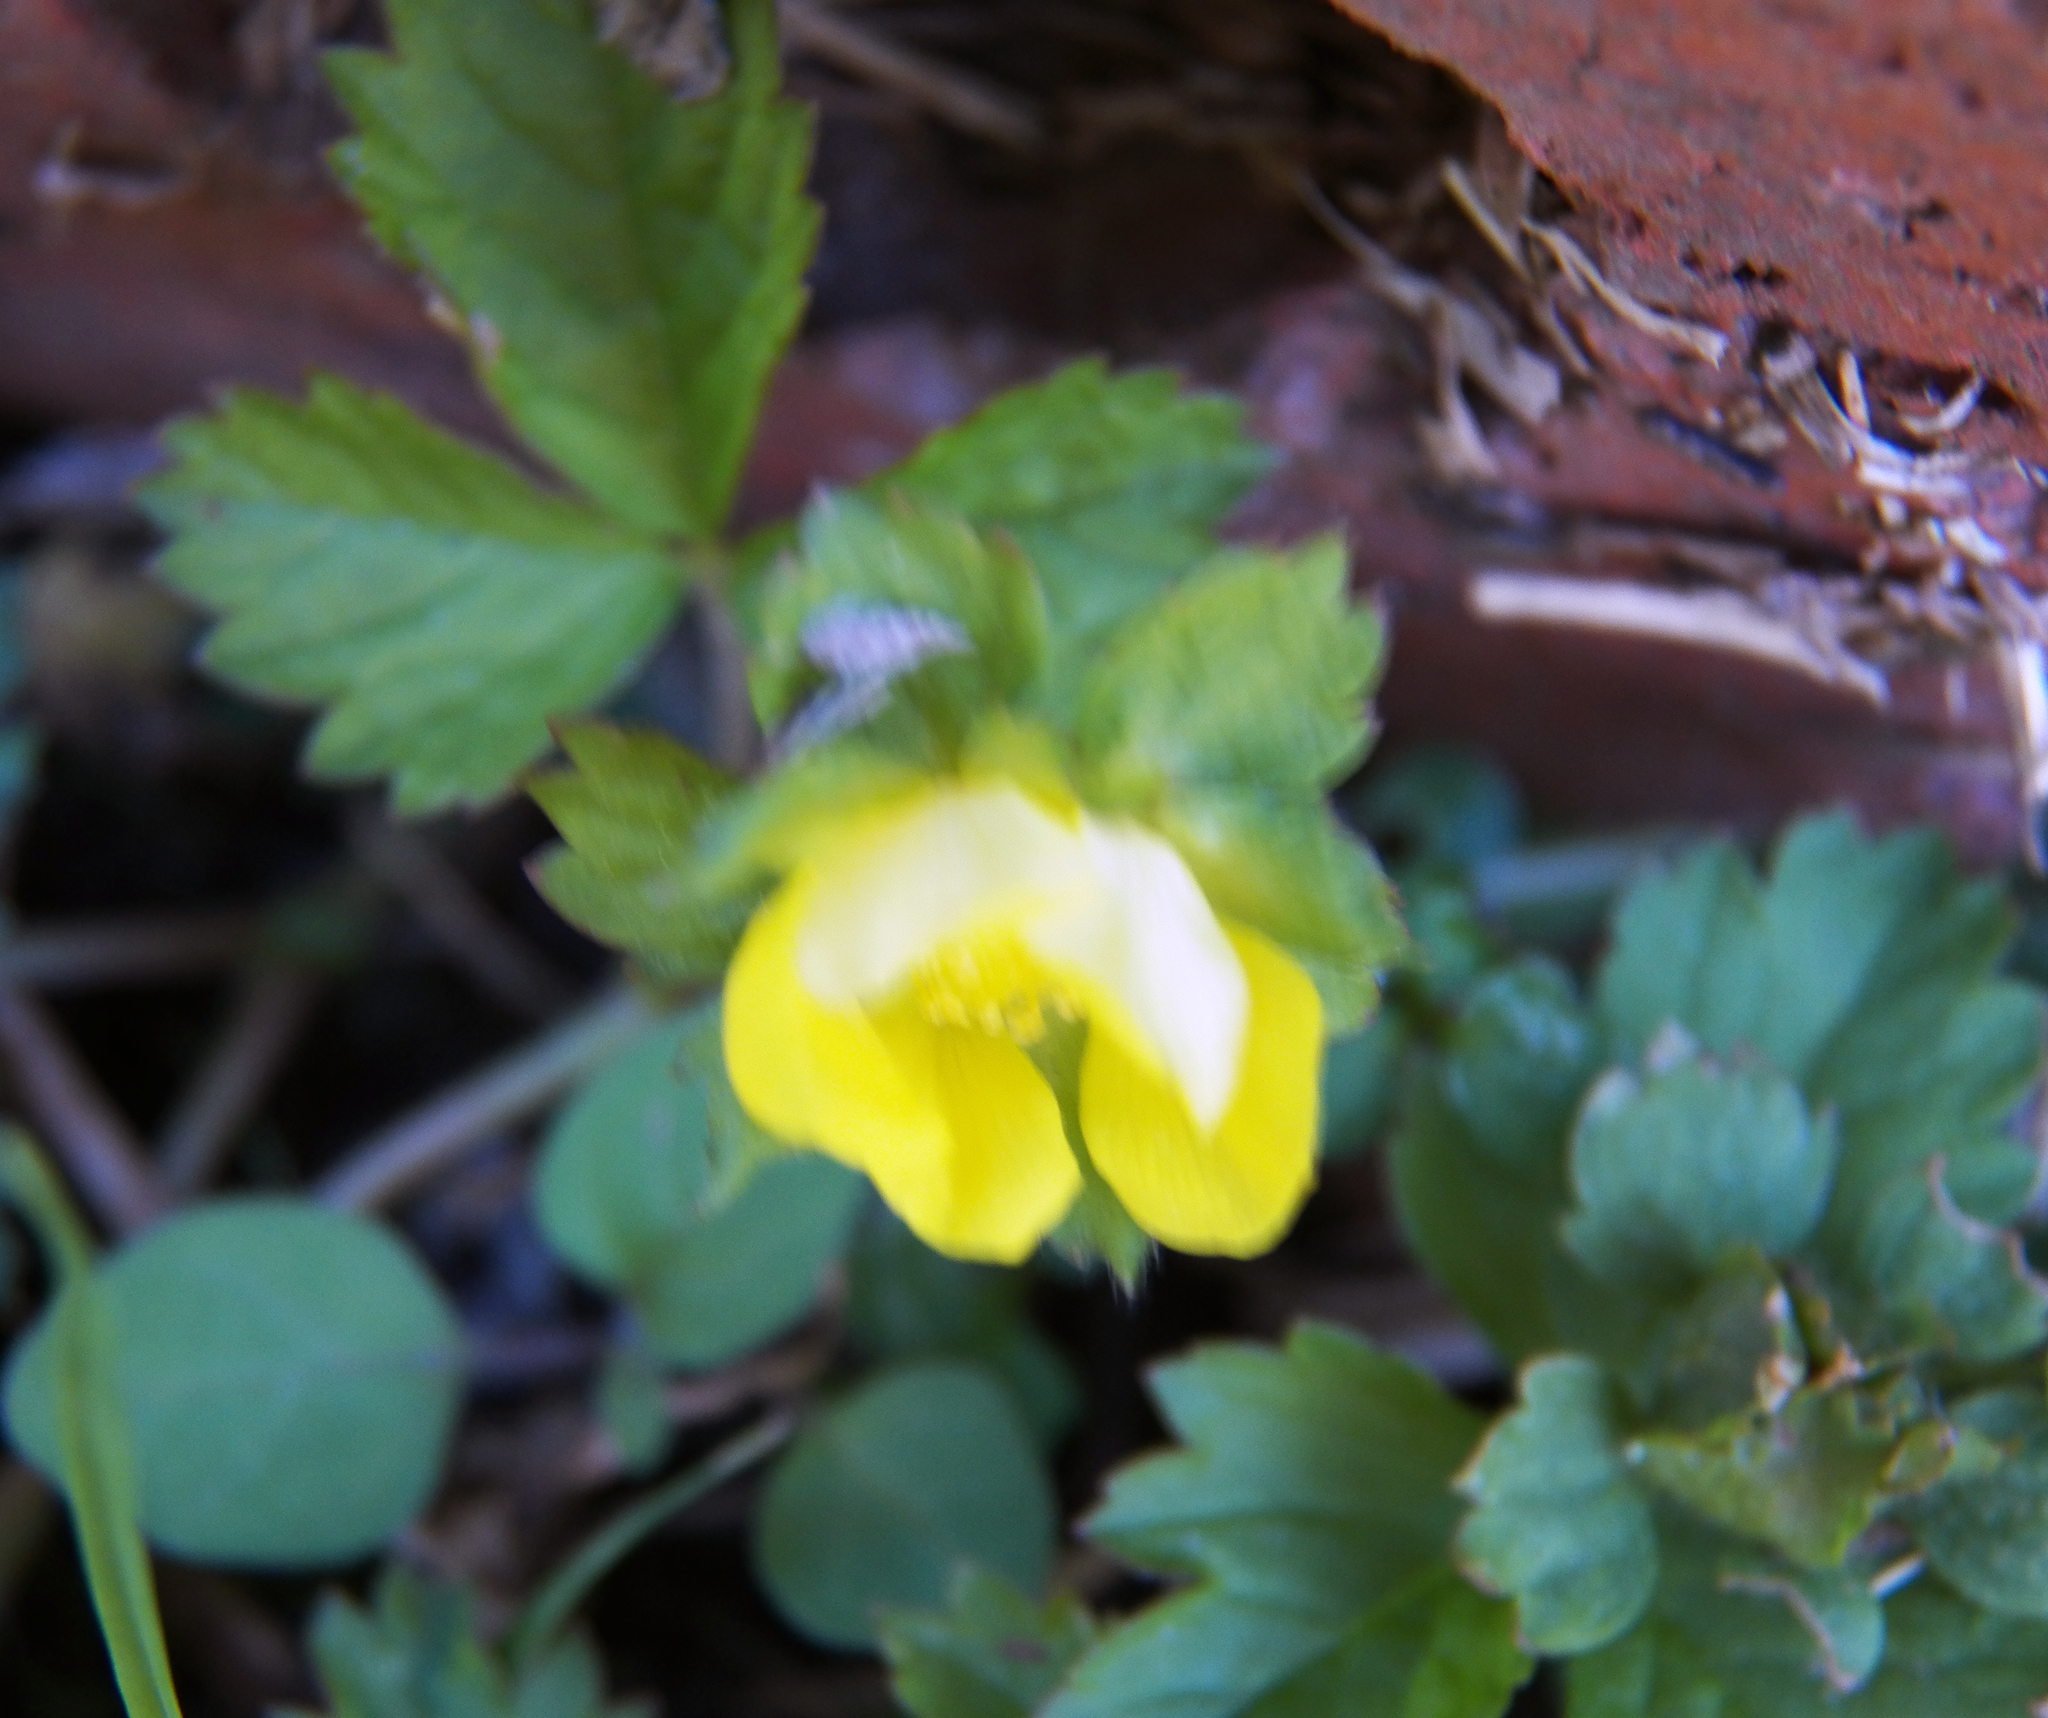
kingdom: Plantae
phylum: Tracheophyta
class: Magnoliopsida
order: Rosales
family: Rosaceae
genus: Potentilla
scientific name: Potentilla indica
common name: Yellow-flowered strawberry
